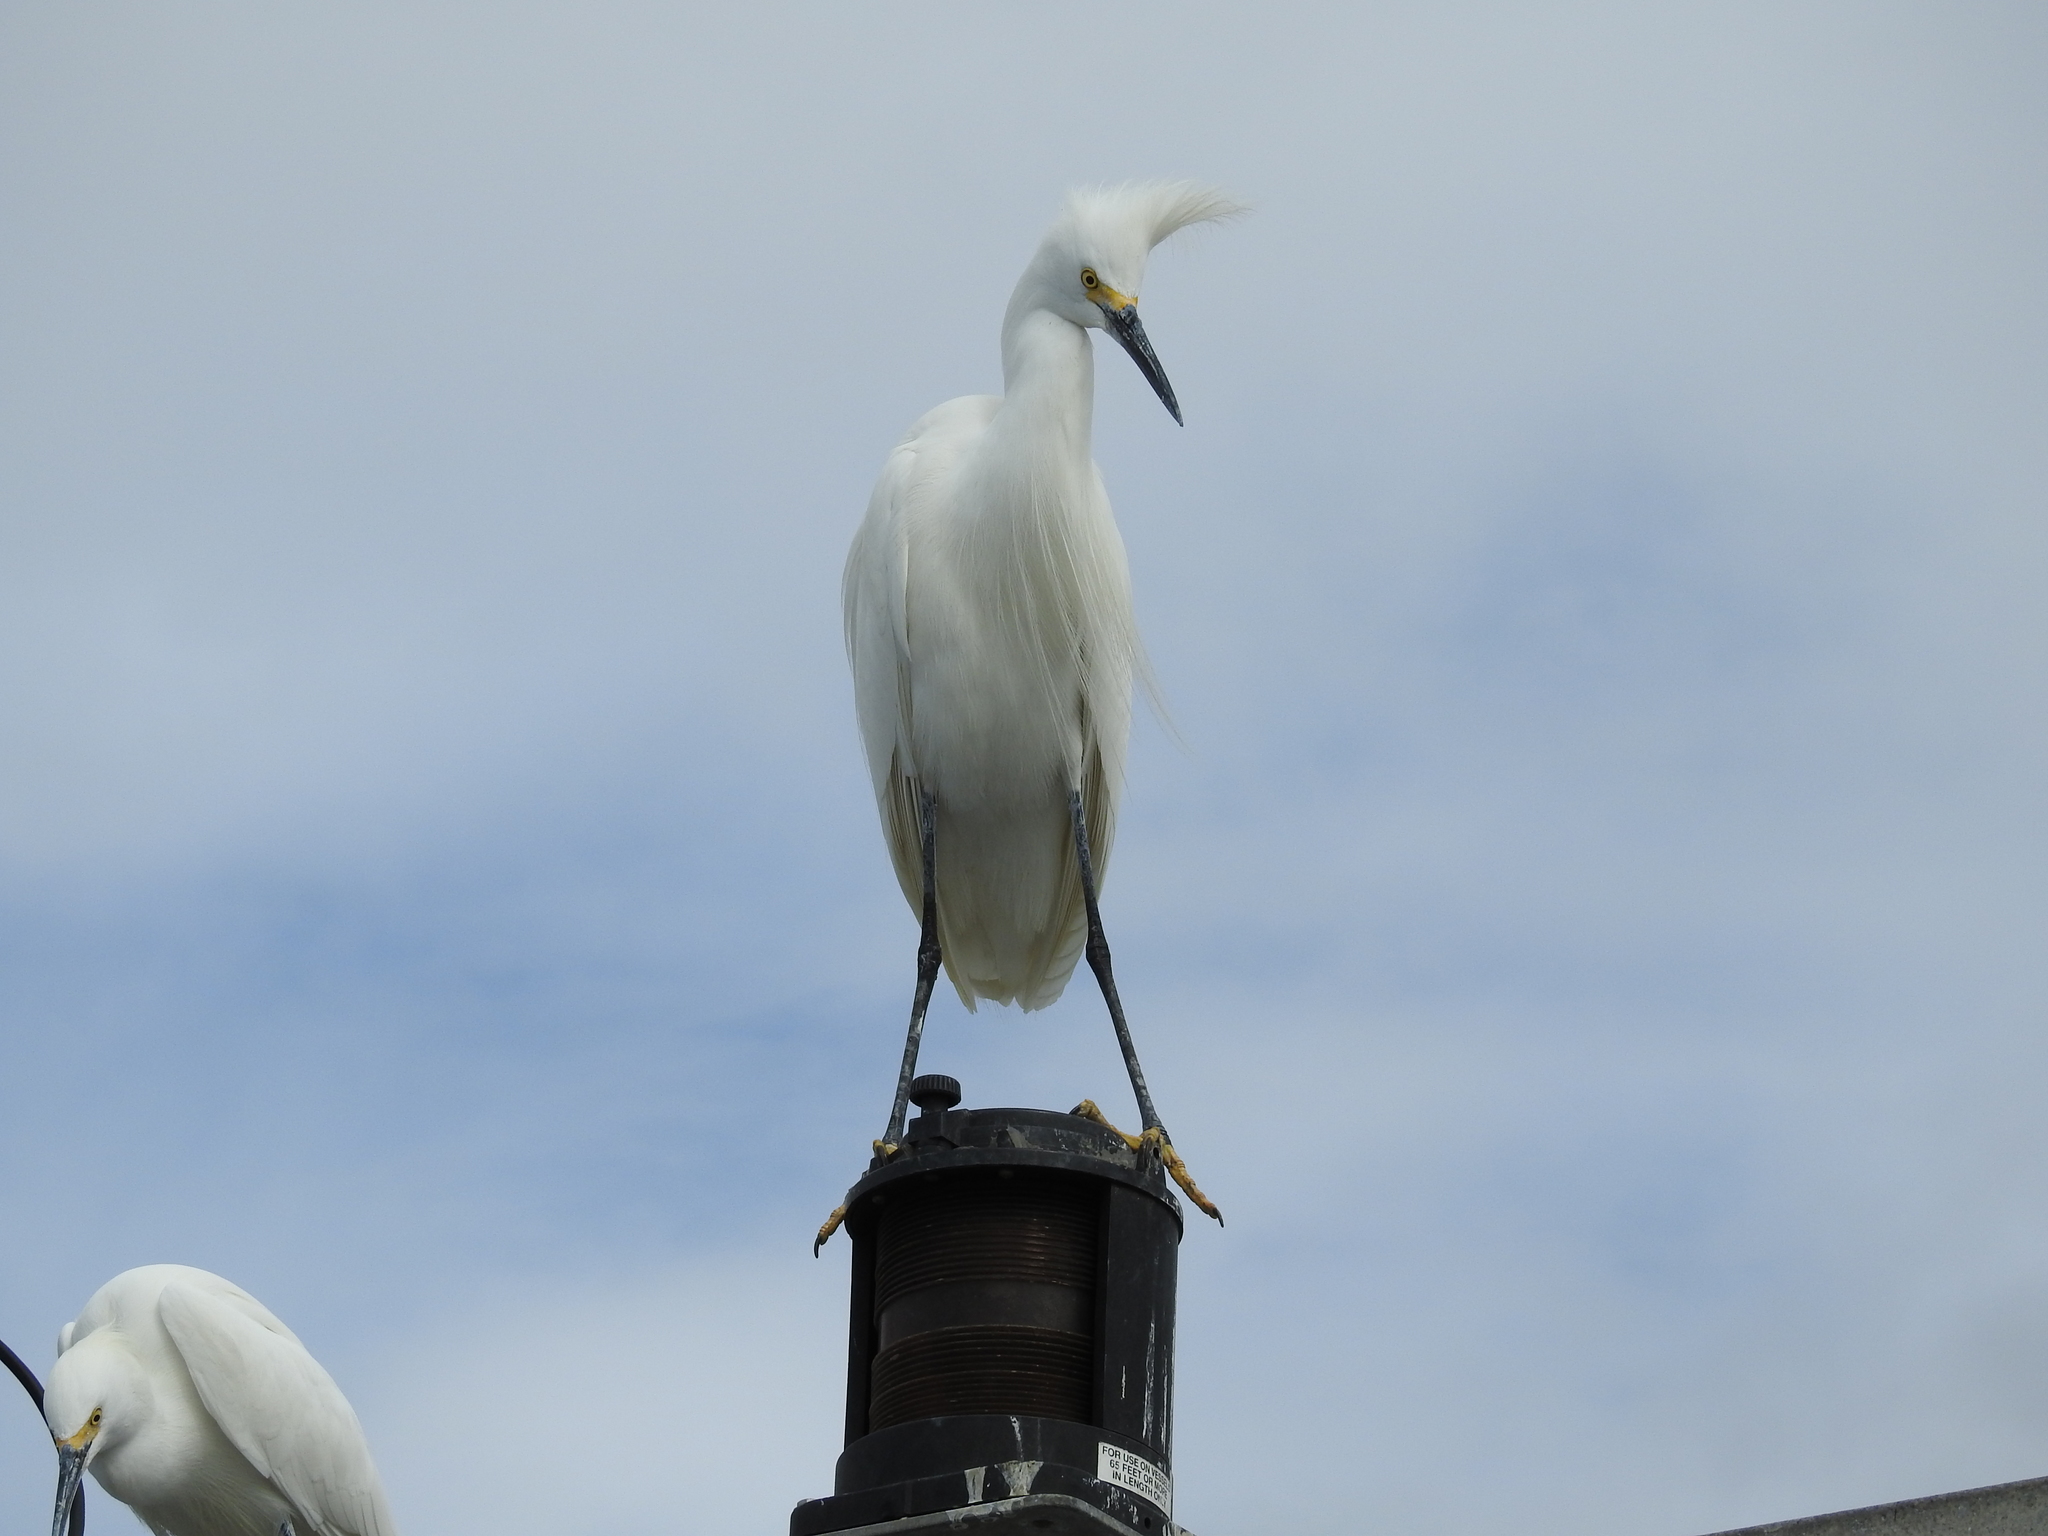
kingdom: Animalia
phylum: Chordata
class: Aves
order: Pelecaniformes
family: Ardeidae
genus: Egretta
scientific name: Egretta thula
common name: Snowy egret
